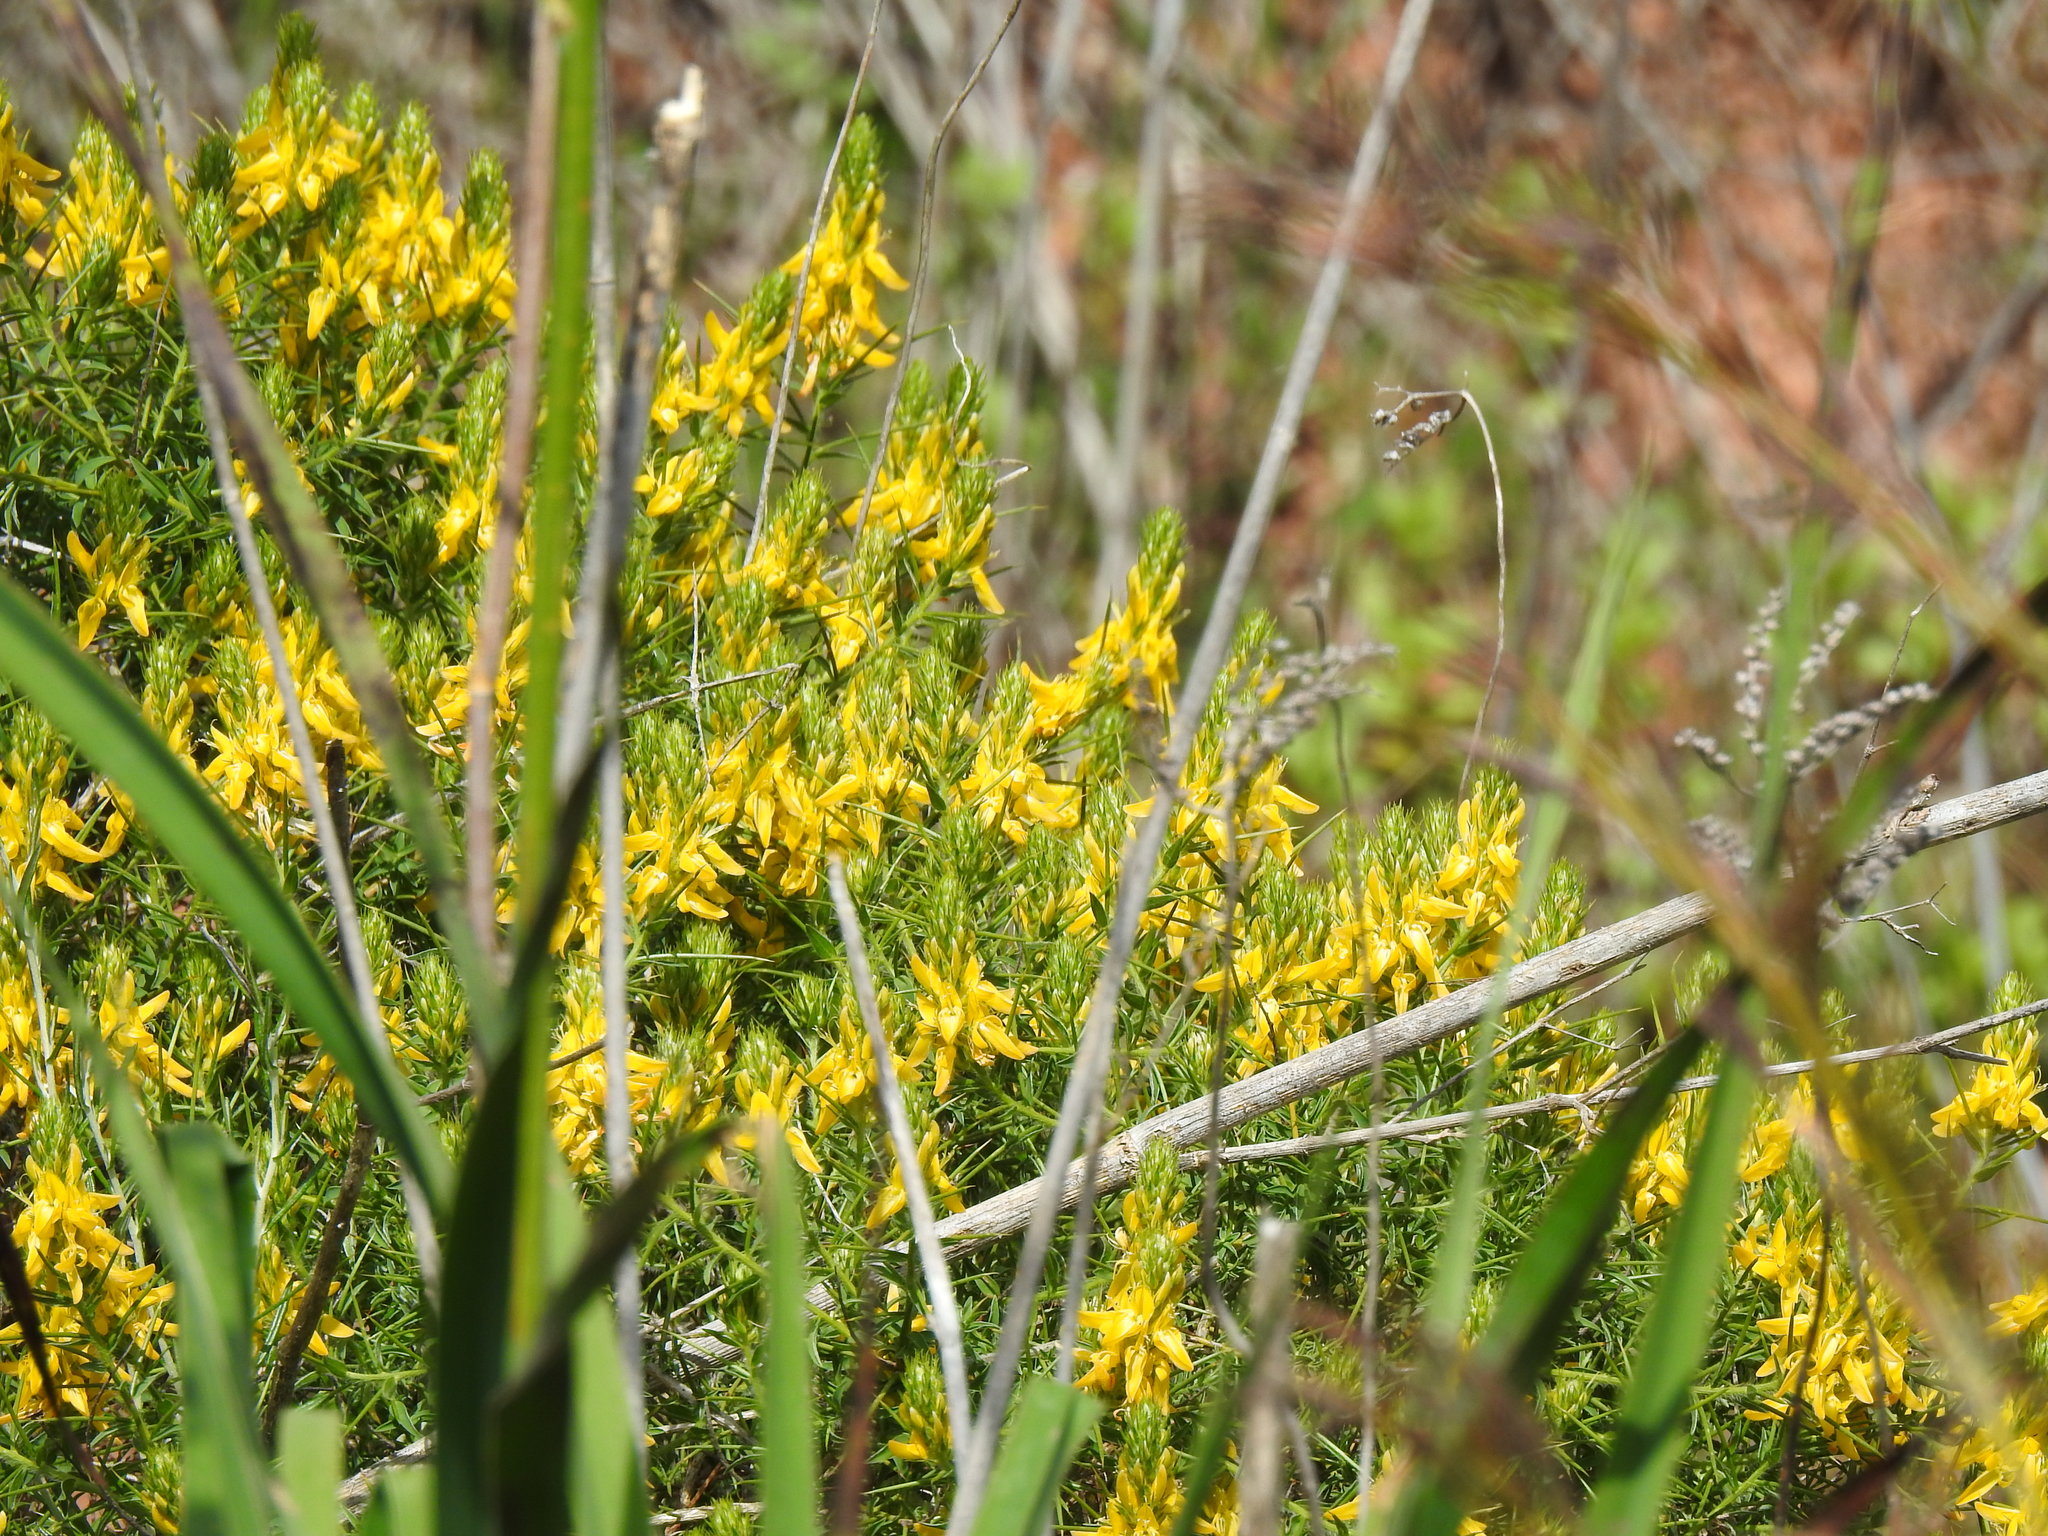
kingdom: Plantae
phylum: Tracheophyta
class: Magnoliopsida
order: Fabales
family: Fabaceae
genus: Genista
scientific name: Genista hirsuta
